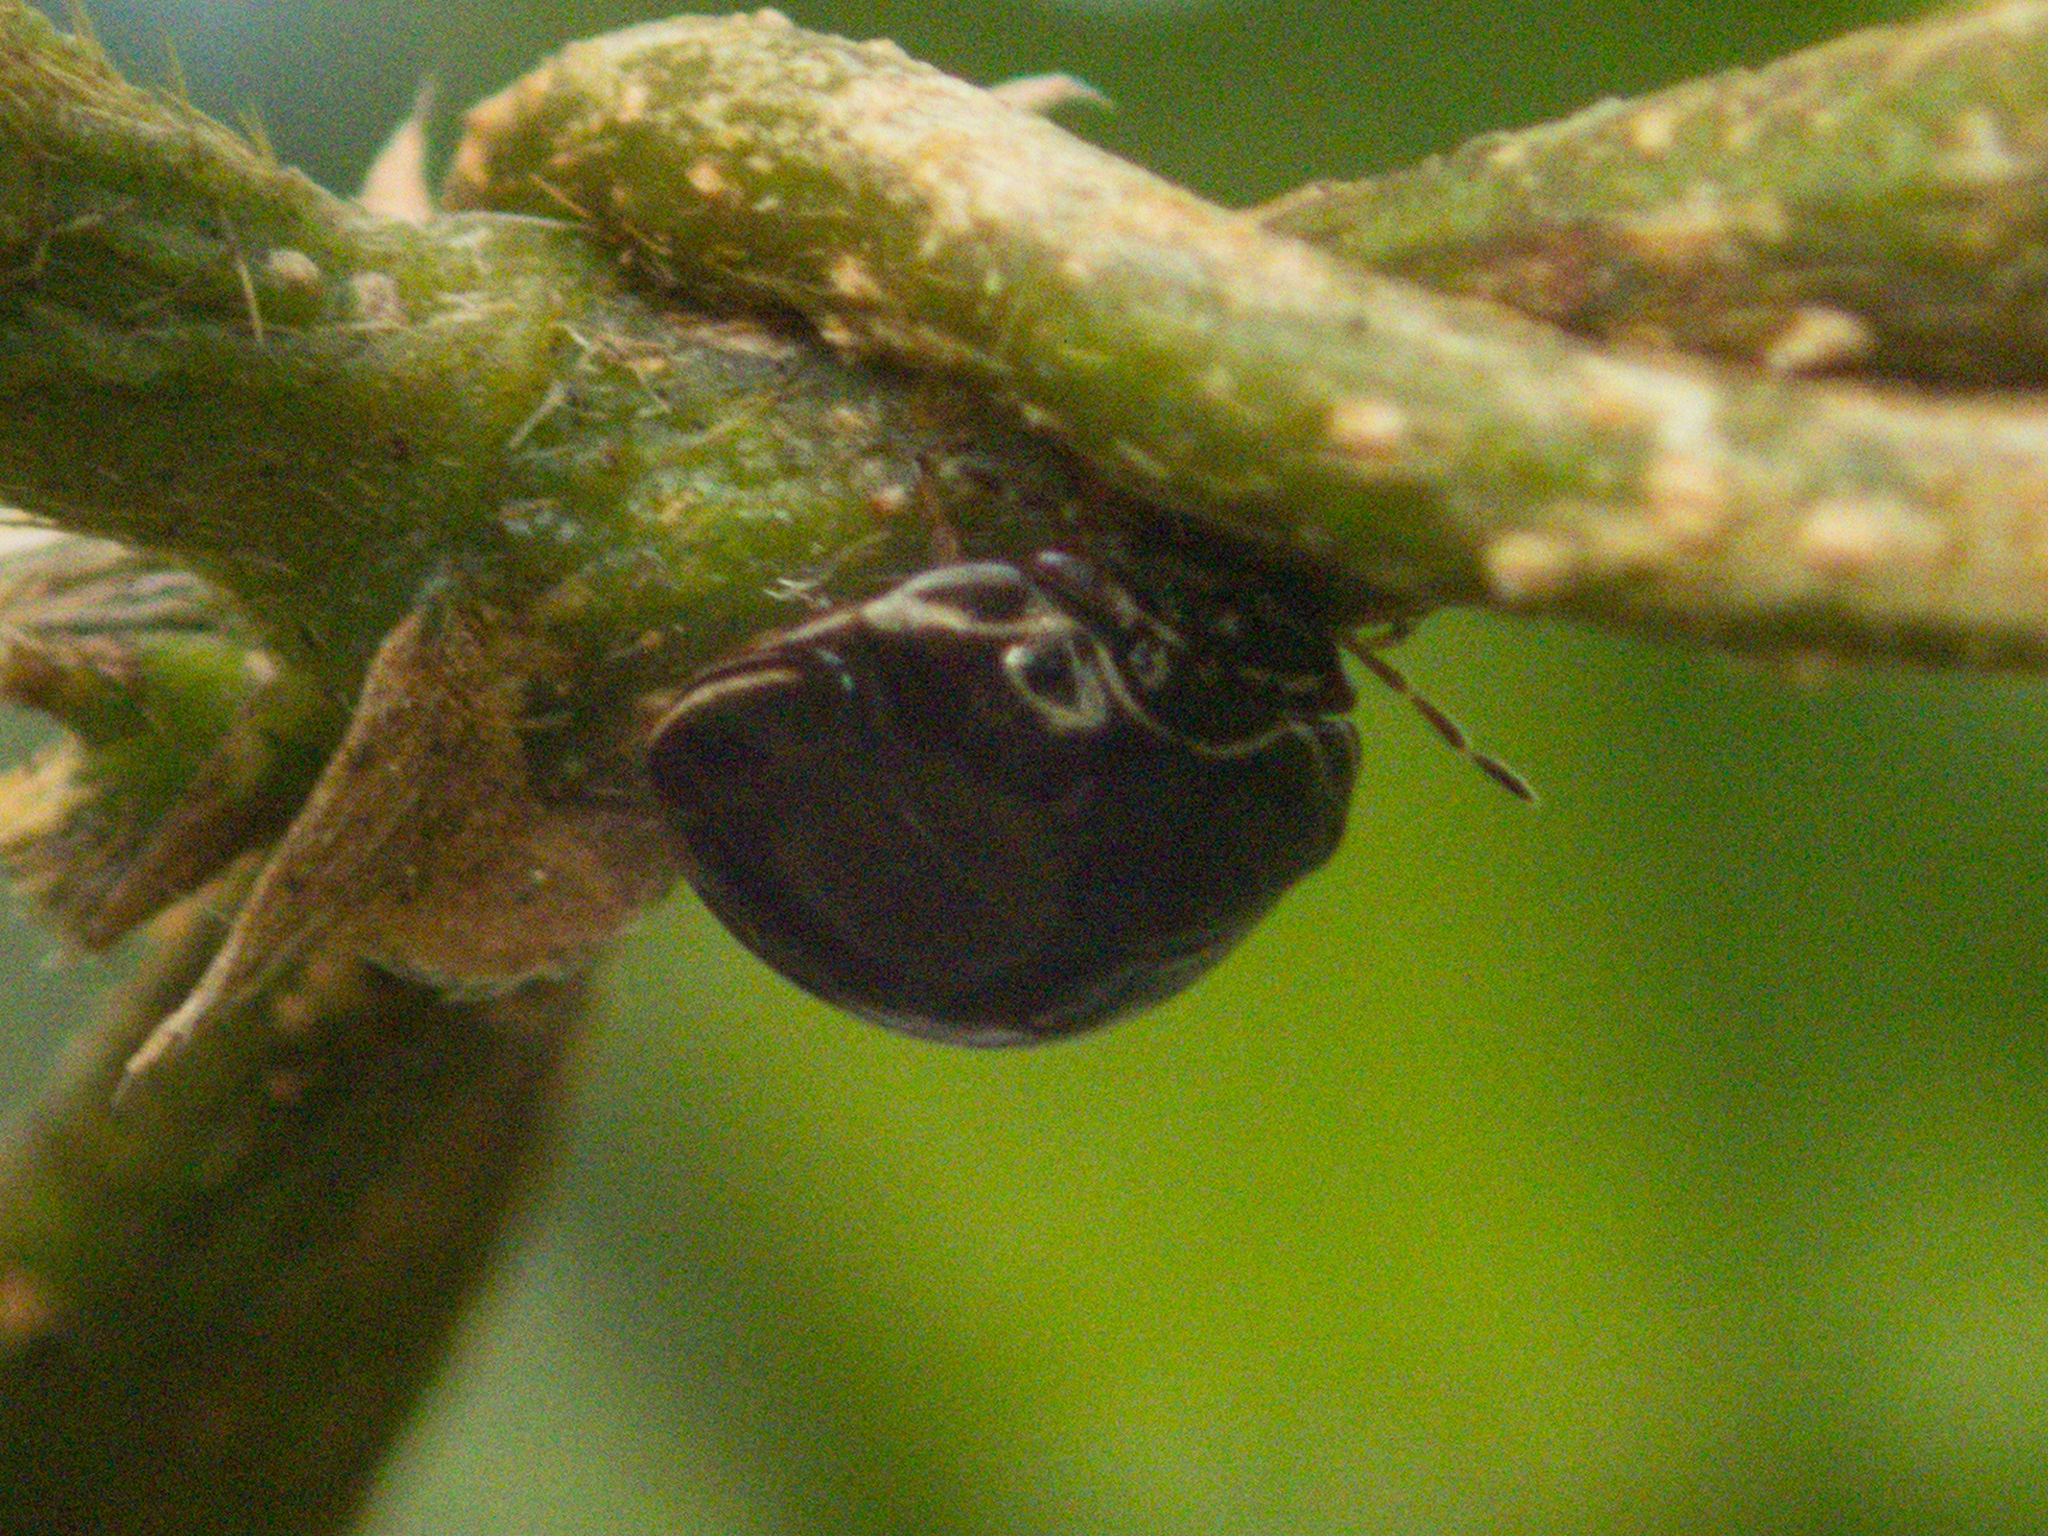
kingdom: Animalia
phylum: Arthropoda
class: Insecta
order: Hemiptera
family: Plataspidae
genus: Brachyplatys
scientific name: Brachyplatys subaeneus
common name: Black bean bug
